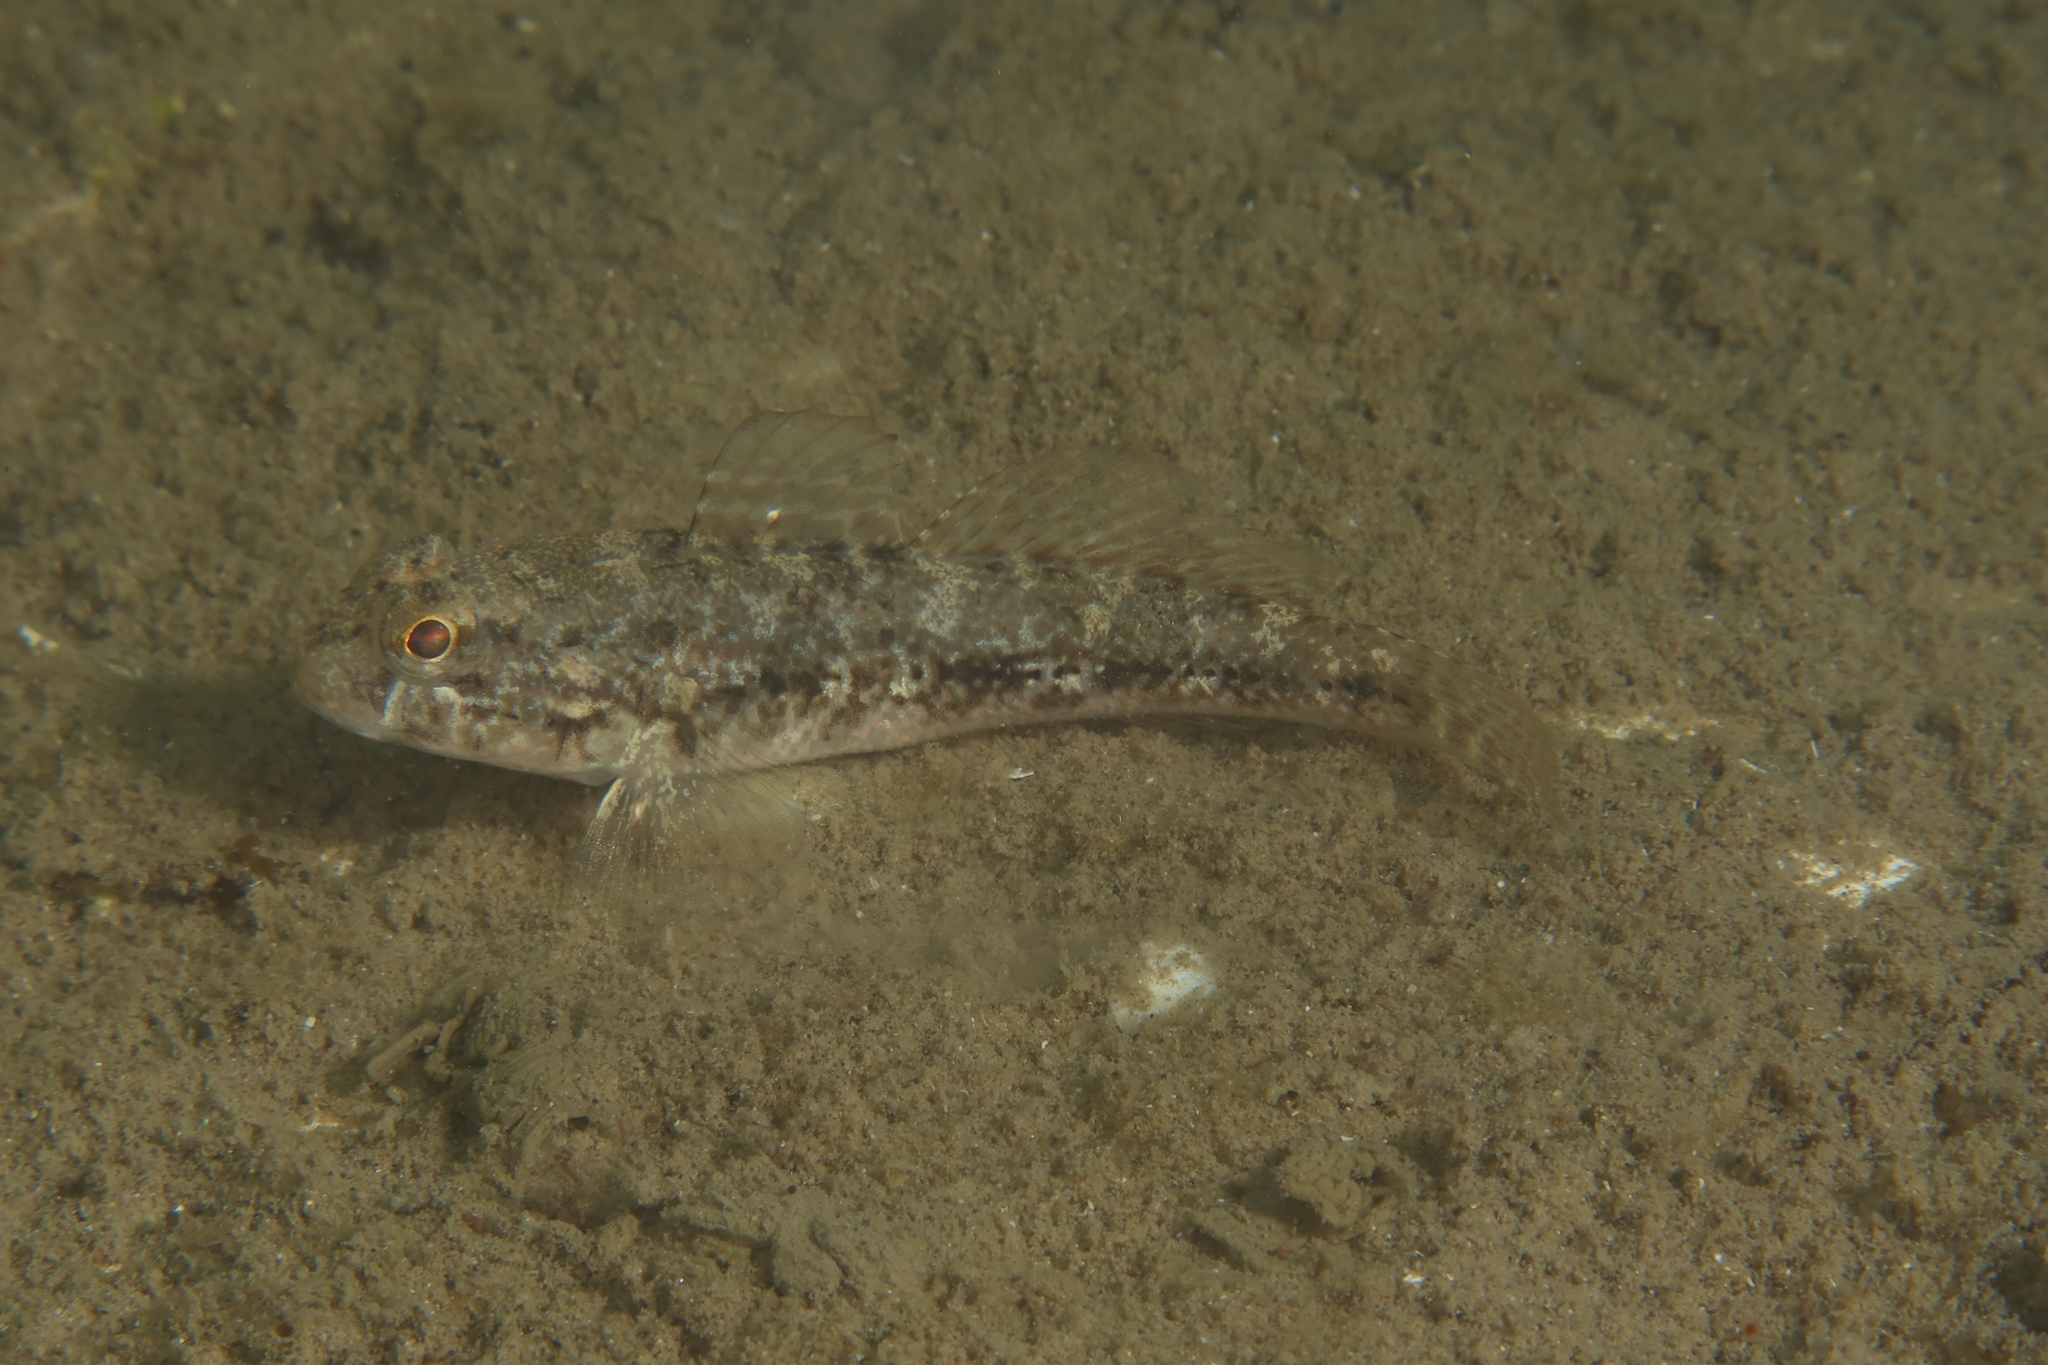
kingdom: Animalia
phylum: Chordata
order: Perciformes
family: Gobiidae
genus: Gobius
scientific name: Gobius niger
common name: Black goby
